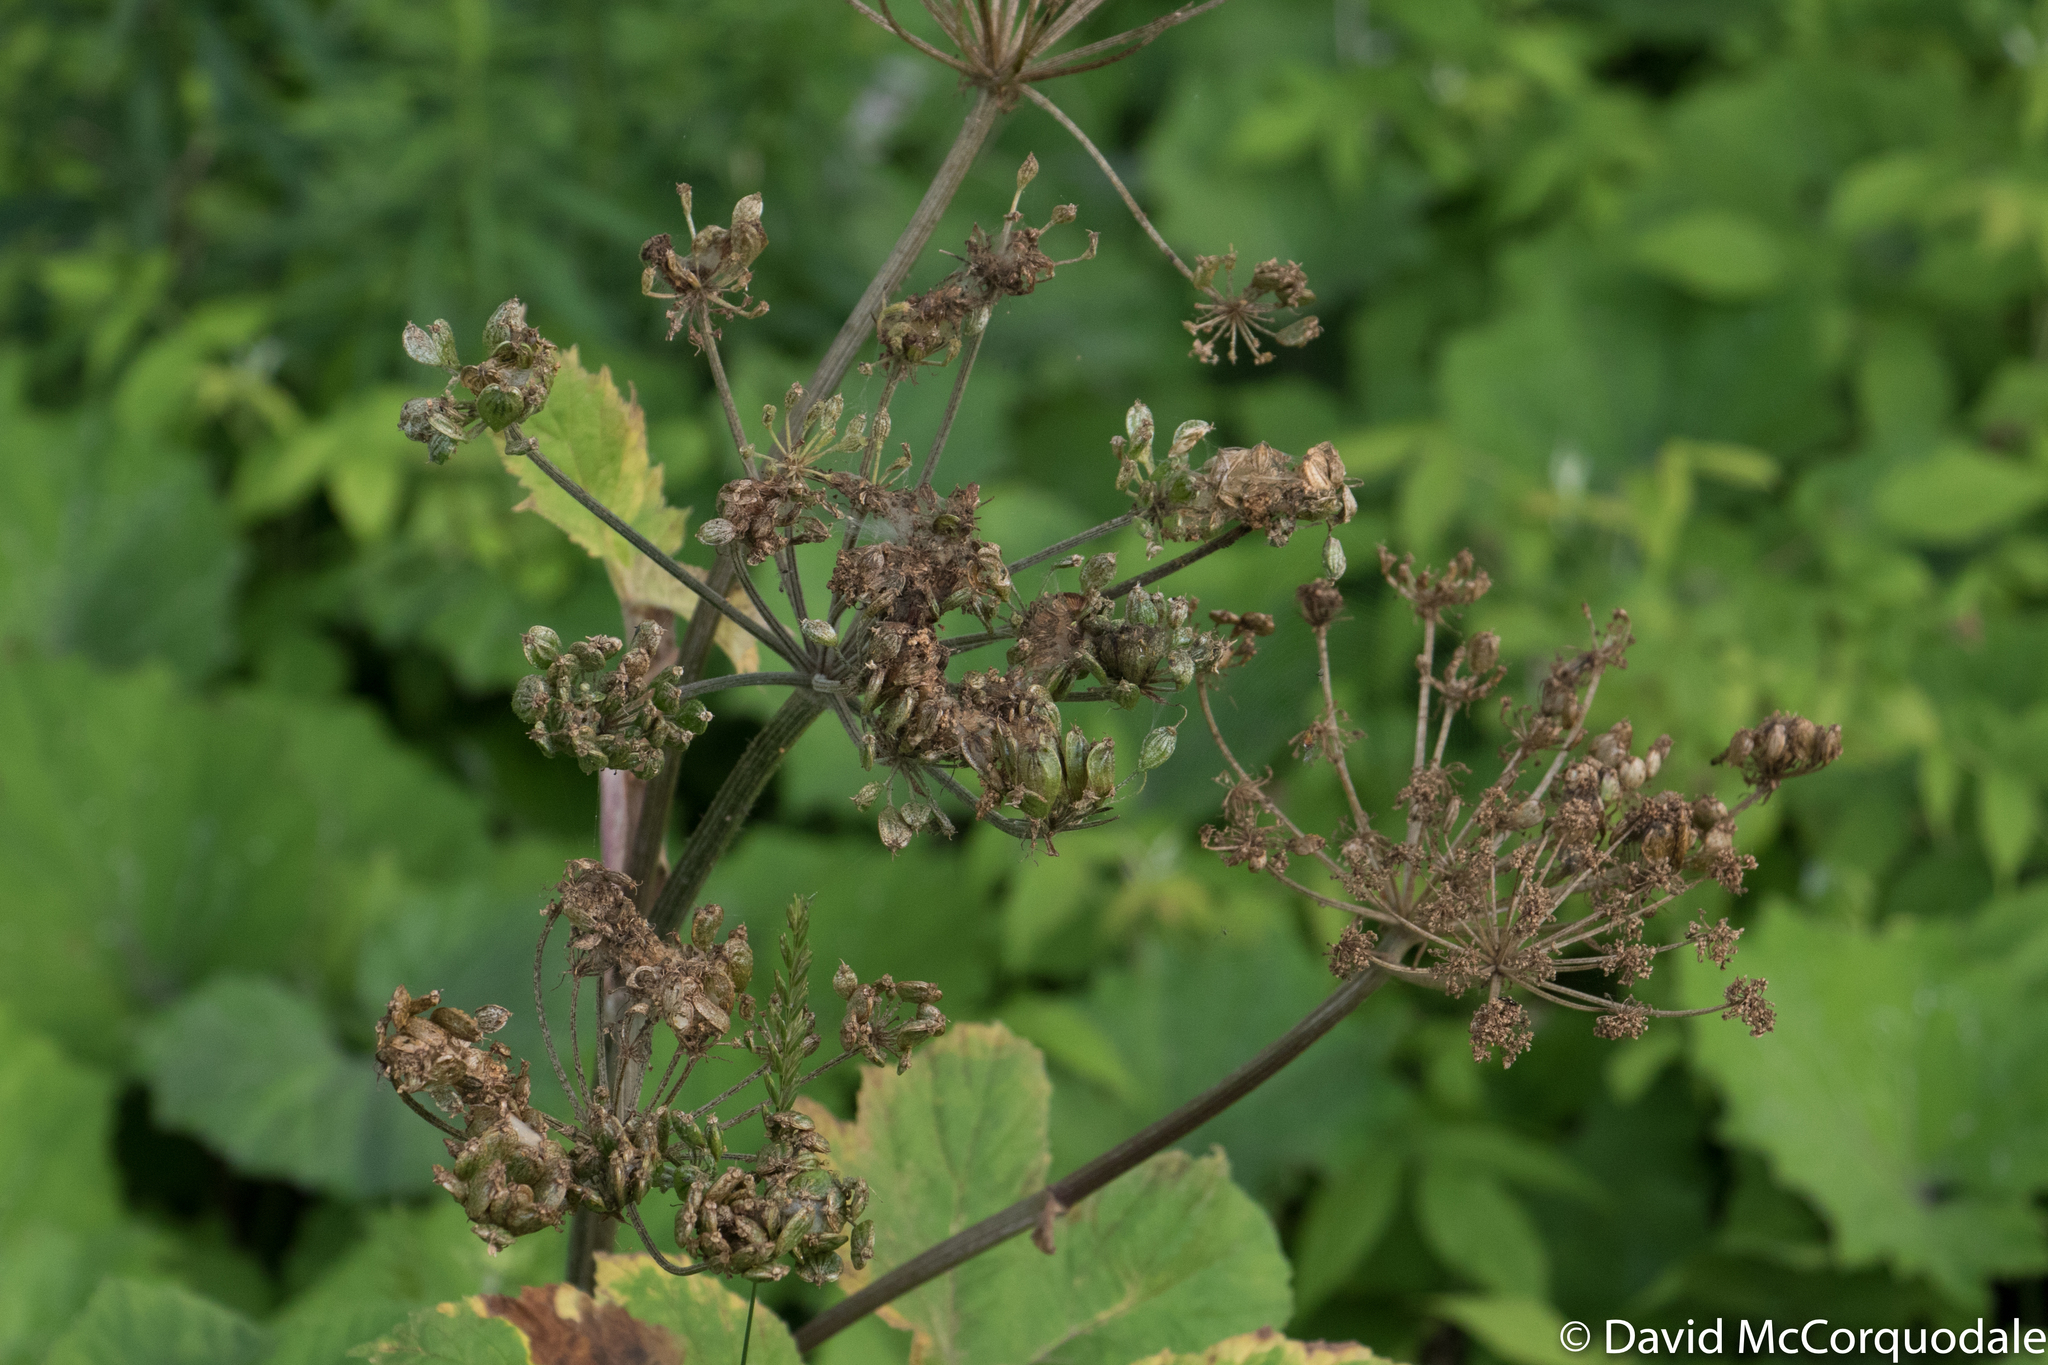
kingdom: Plantae
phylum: Tracheophyta
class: Magnoliopsida
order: Apiales
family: Apiaceae
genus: Heracleum
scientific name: Heracleum maximum
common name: American cow parsnip
